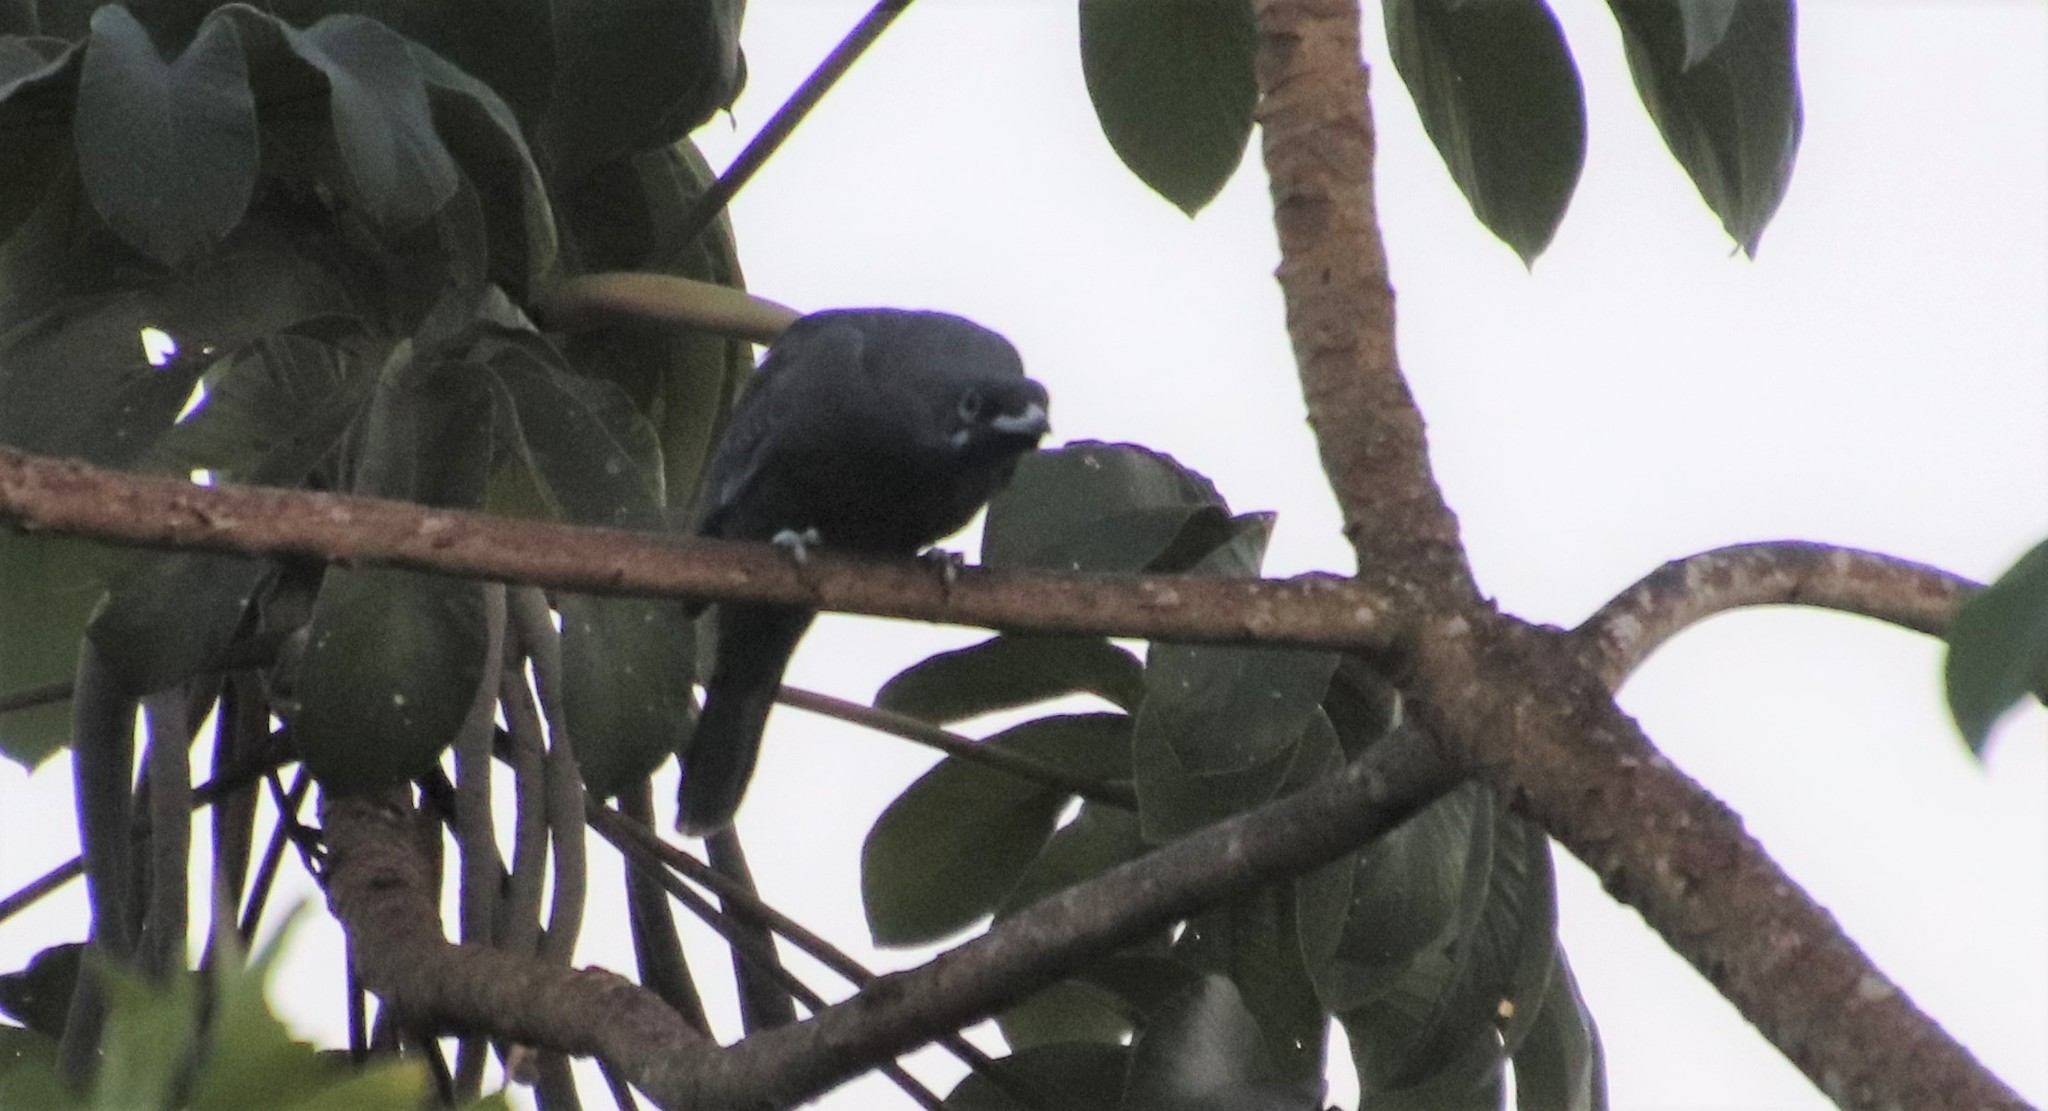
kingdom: Animalia
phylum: Chordata
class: Aves
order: Passeriformes
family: Cotingidae
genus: Gymnoderus
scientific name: Gymnoderus foetidus
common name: Bare-necked fruitcrow
